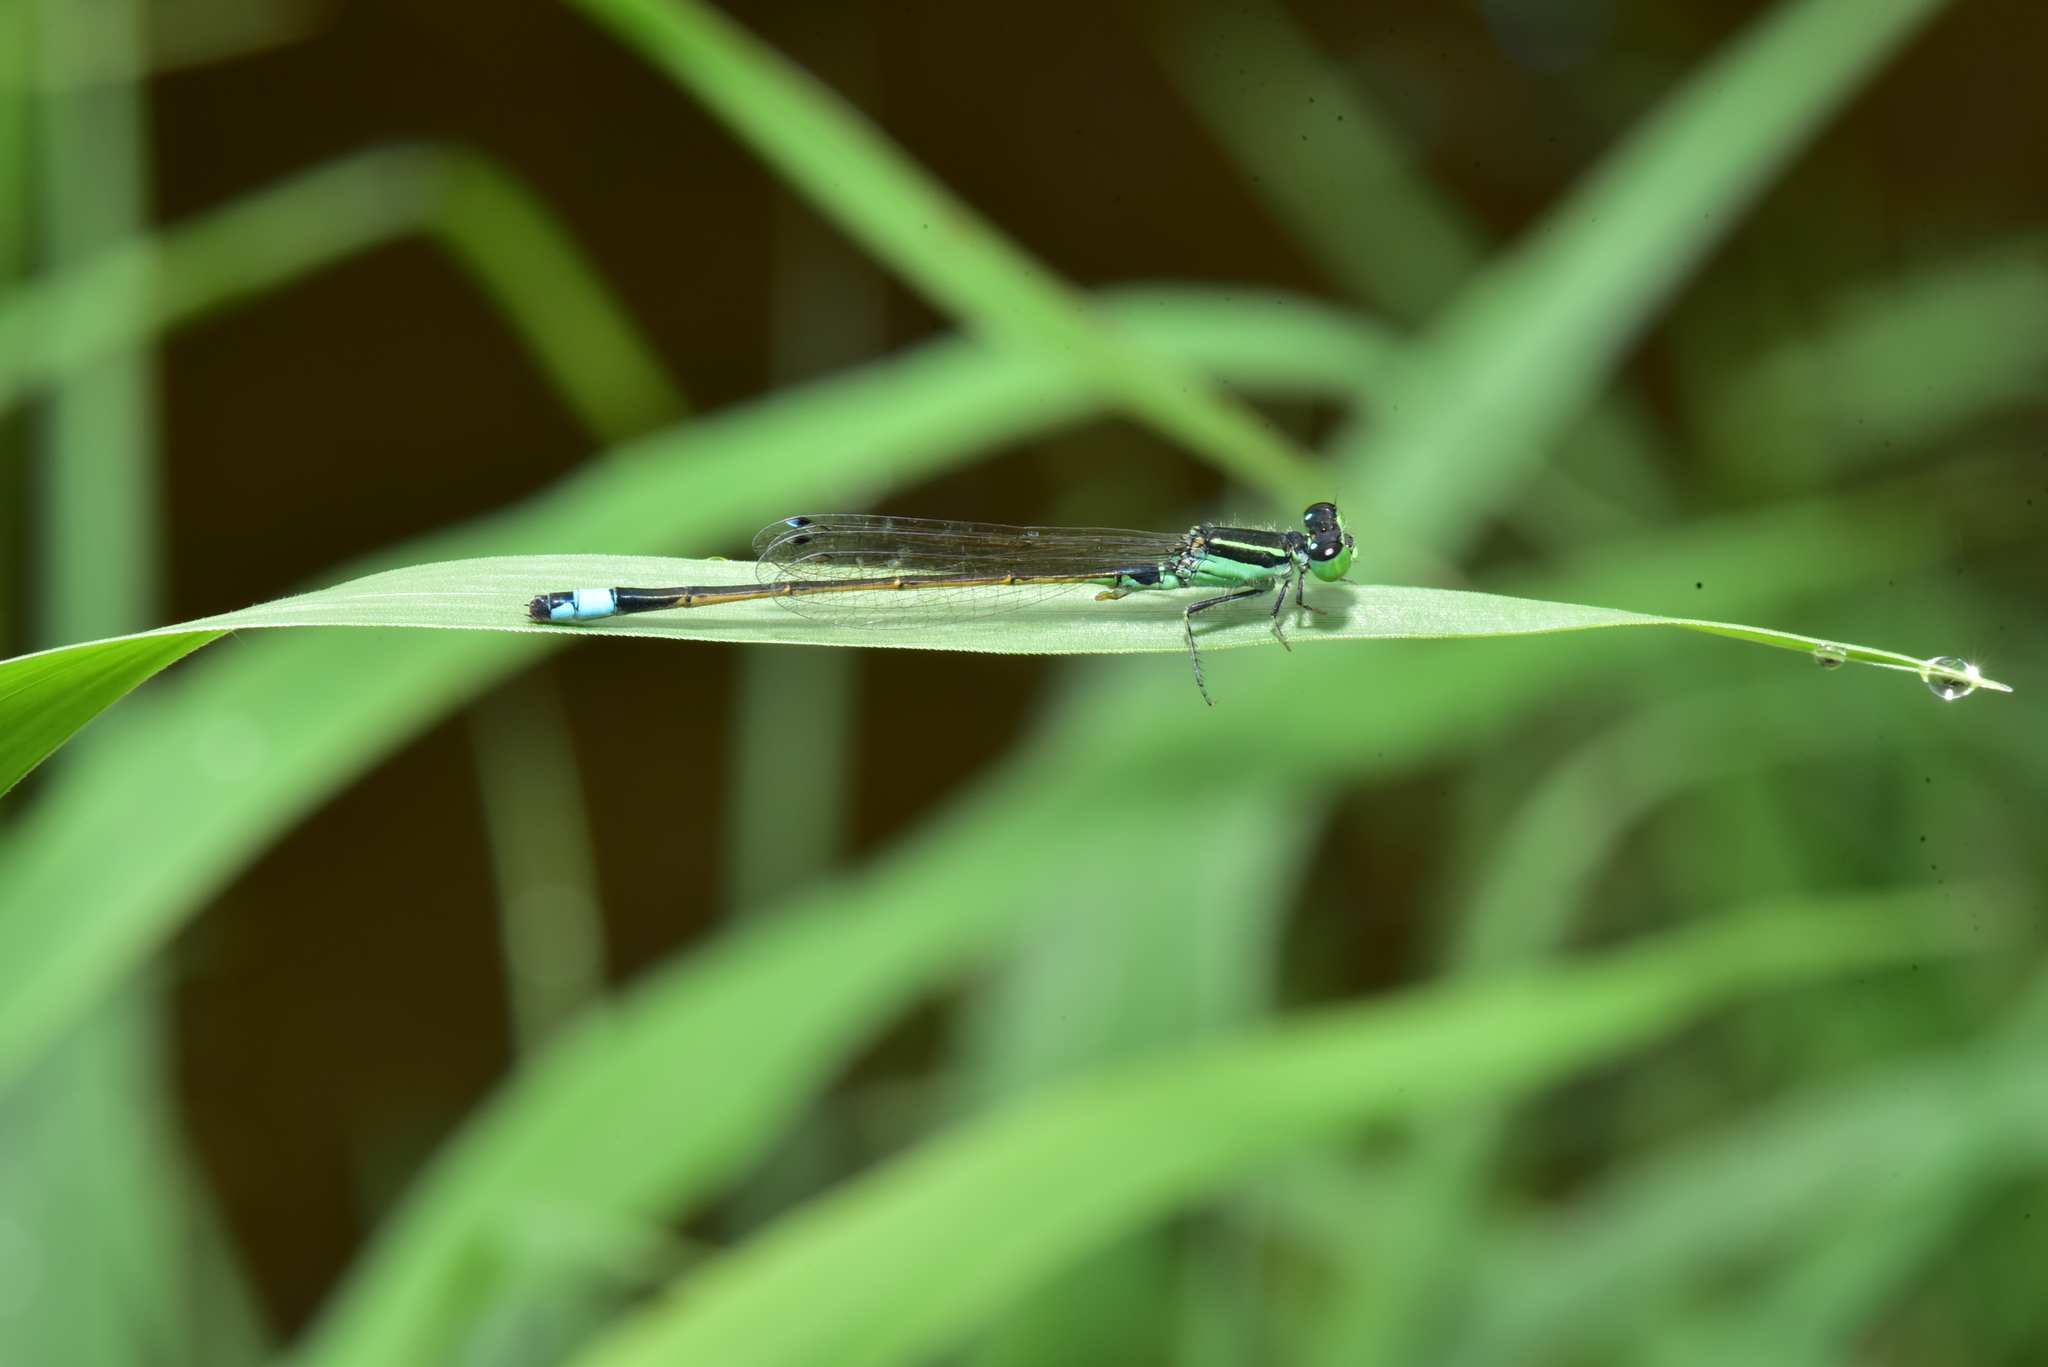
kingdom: Animalia
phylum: Arthropoda
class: Insecta
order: Odonata
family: Coenagrionidae
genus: Ischnura
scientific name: Ischnura senegalensis
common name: Tropical bluetail
